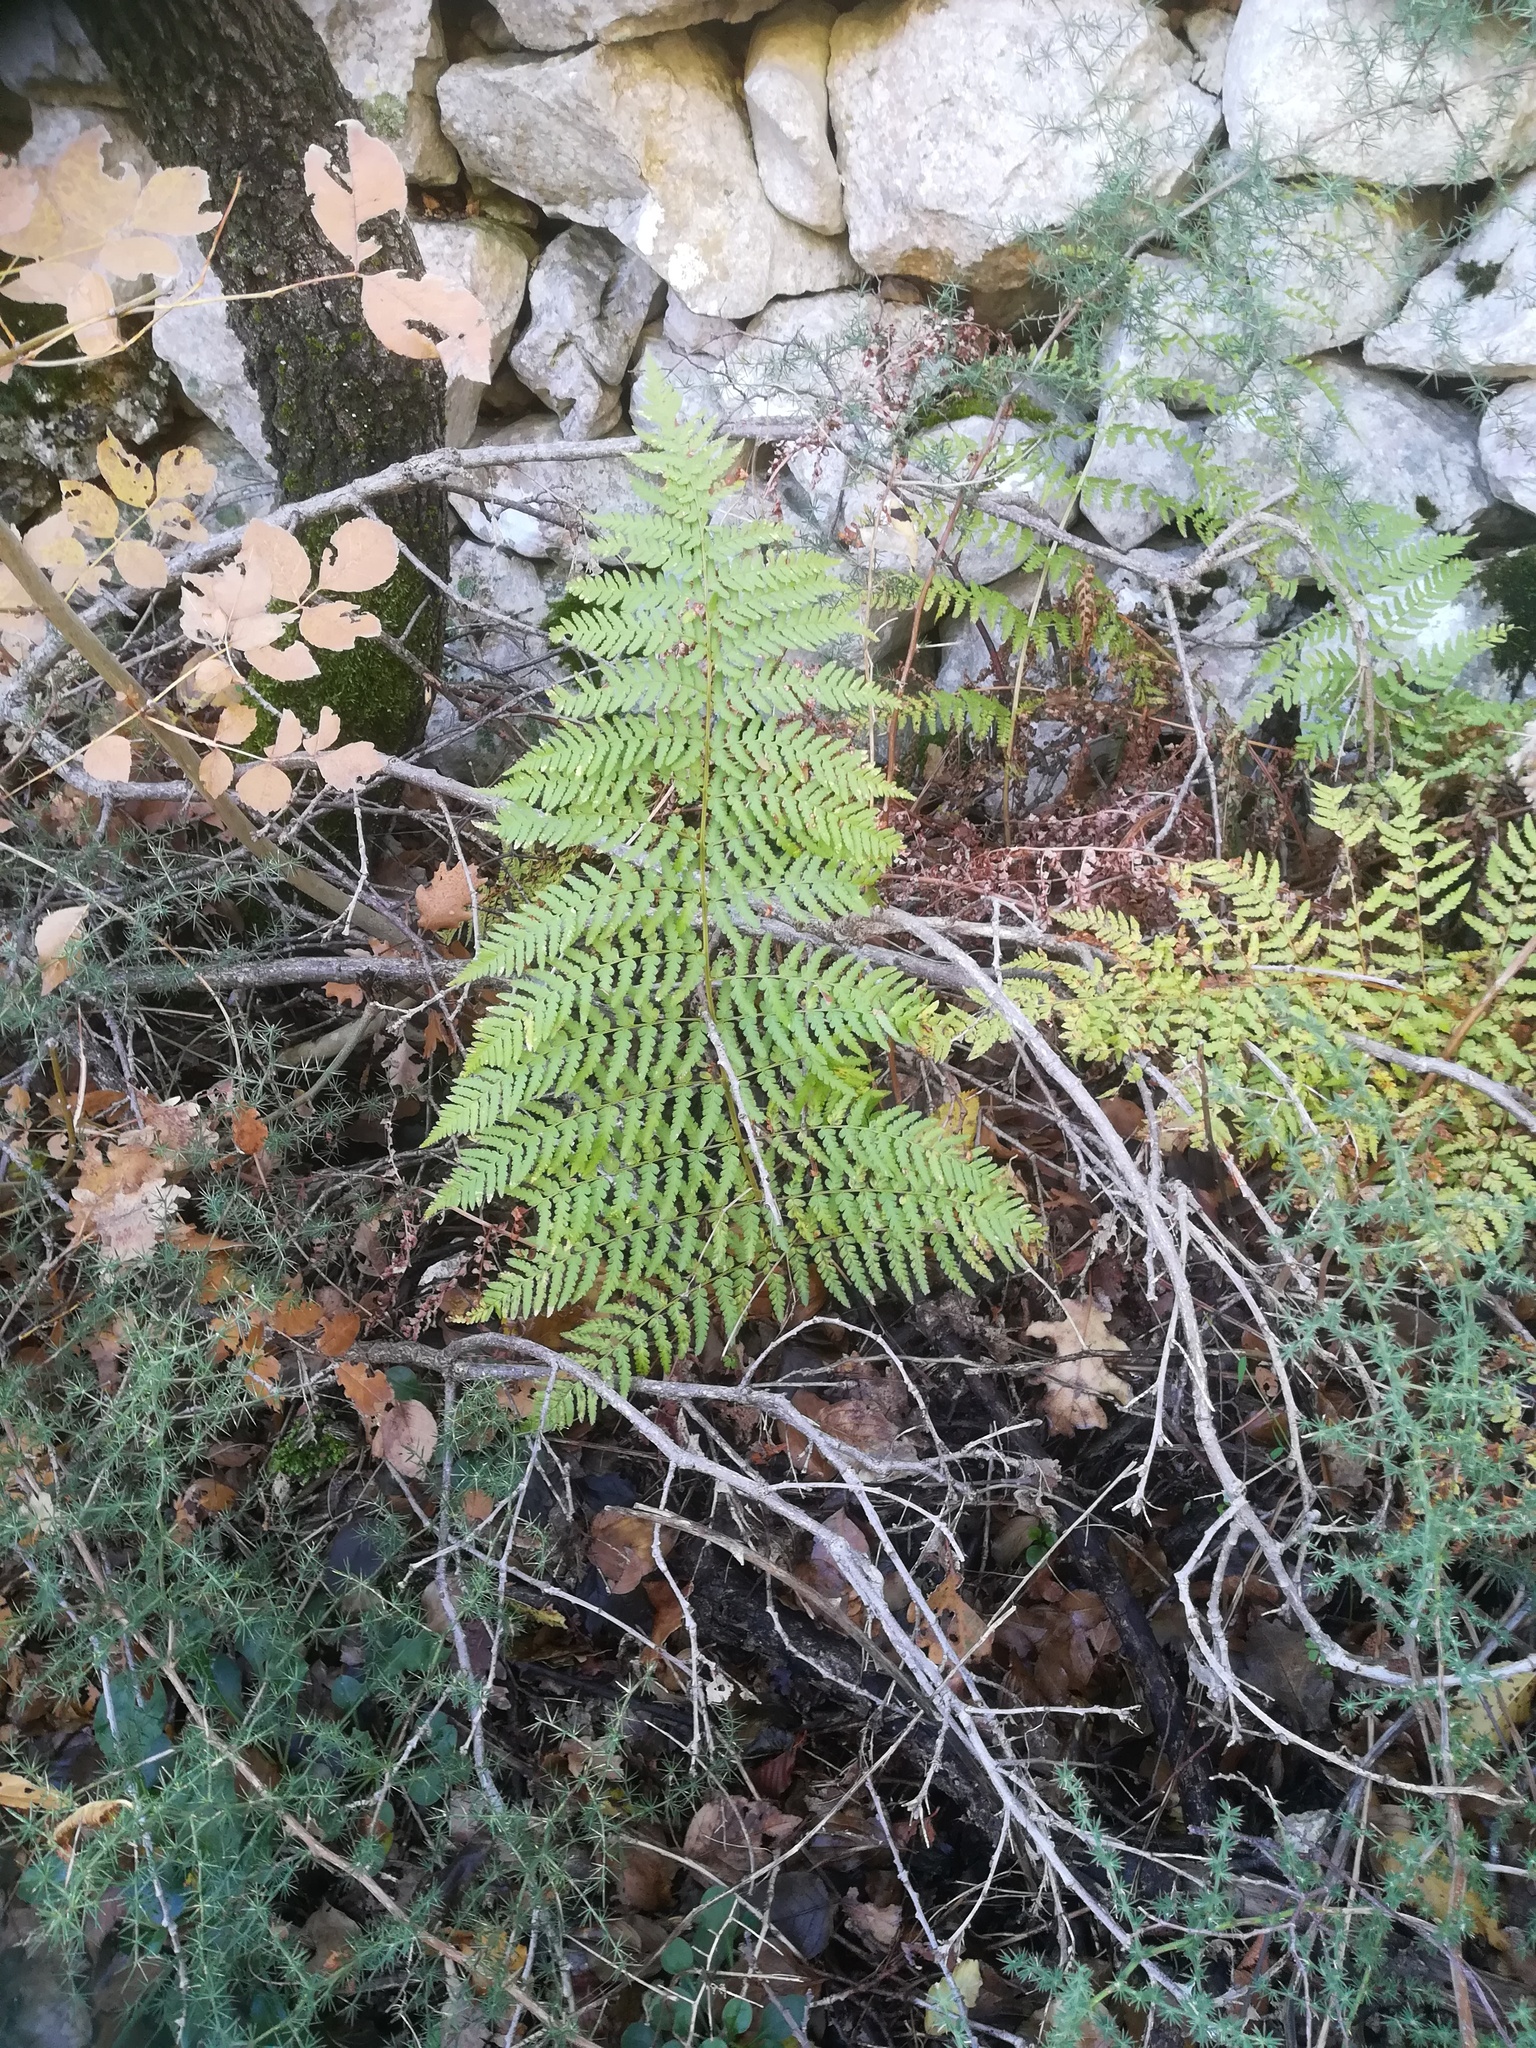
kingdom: Plantae
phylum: Tracheophyta
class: Polypodiopsida
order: Polypodiales
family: Dennstaedtiaceae
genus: Pteridium
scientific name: Pteridium aquilinum
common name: Bracken
